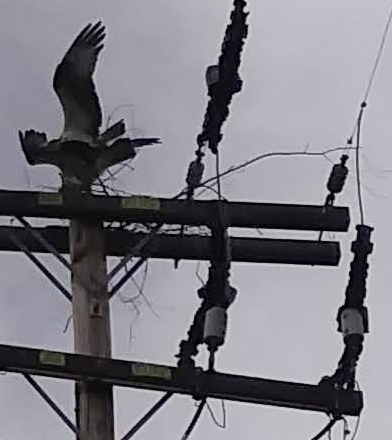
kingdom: Animalia
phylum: Chordata
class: Aves
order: Accipitriformes
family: Pandionidae
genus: Pandion
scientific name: Pandion haliaetus
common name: Osprey
